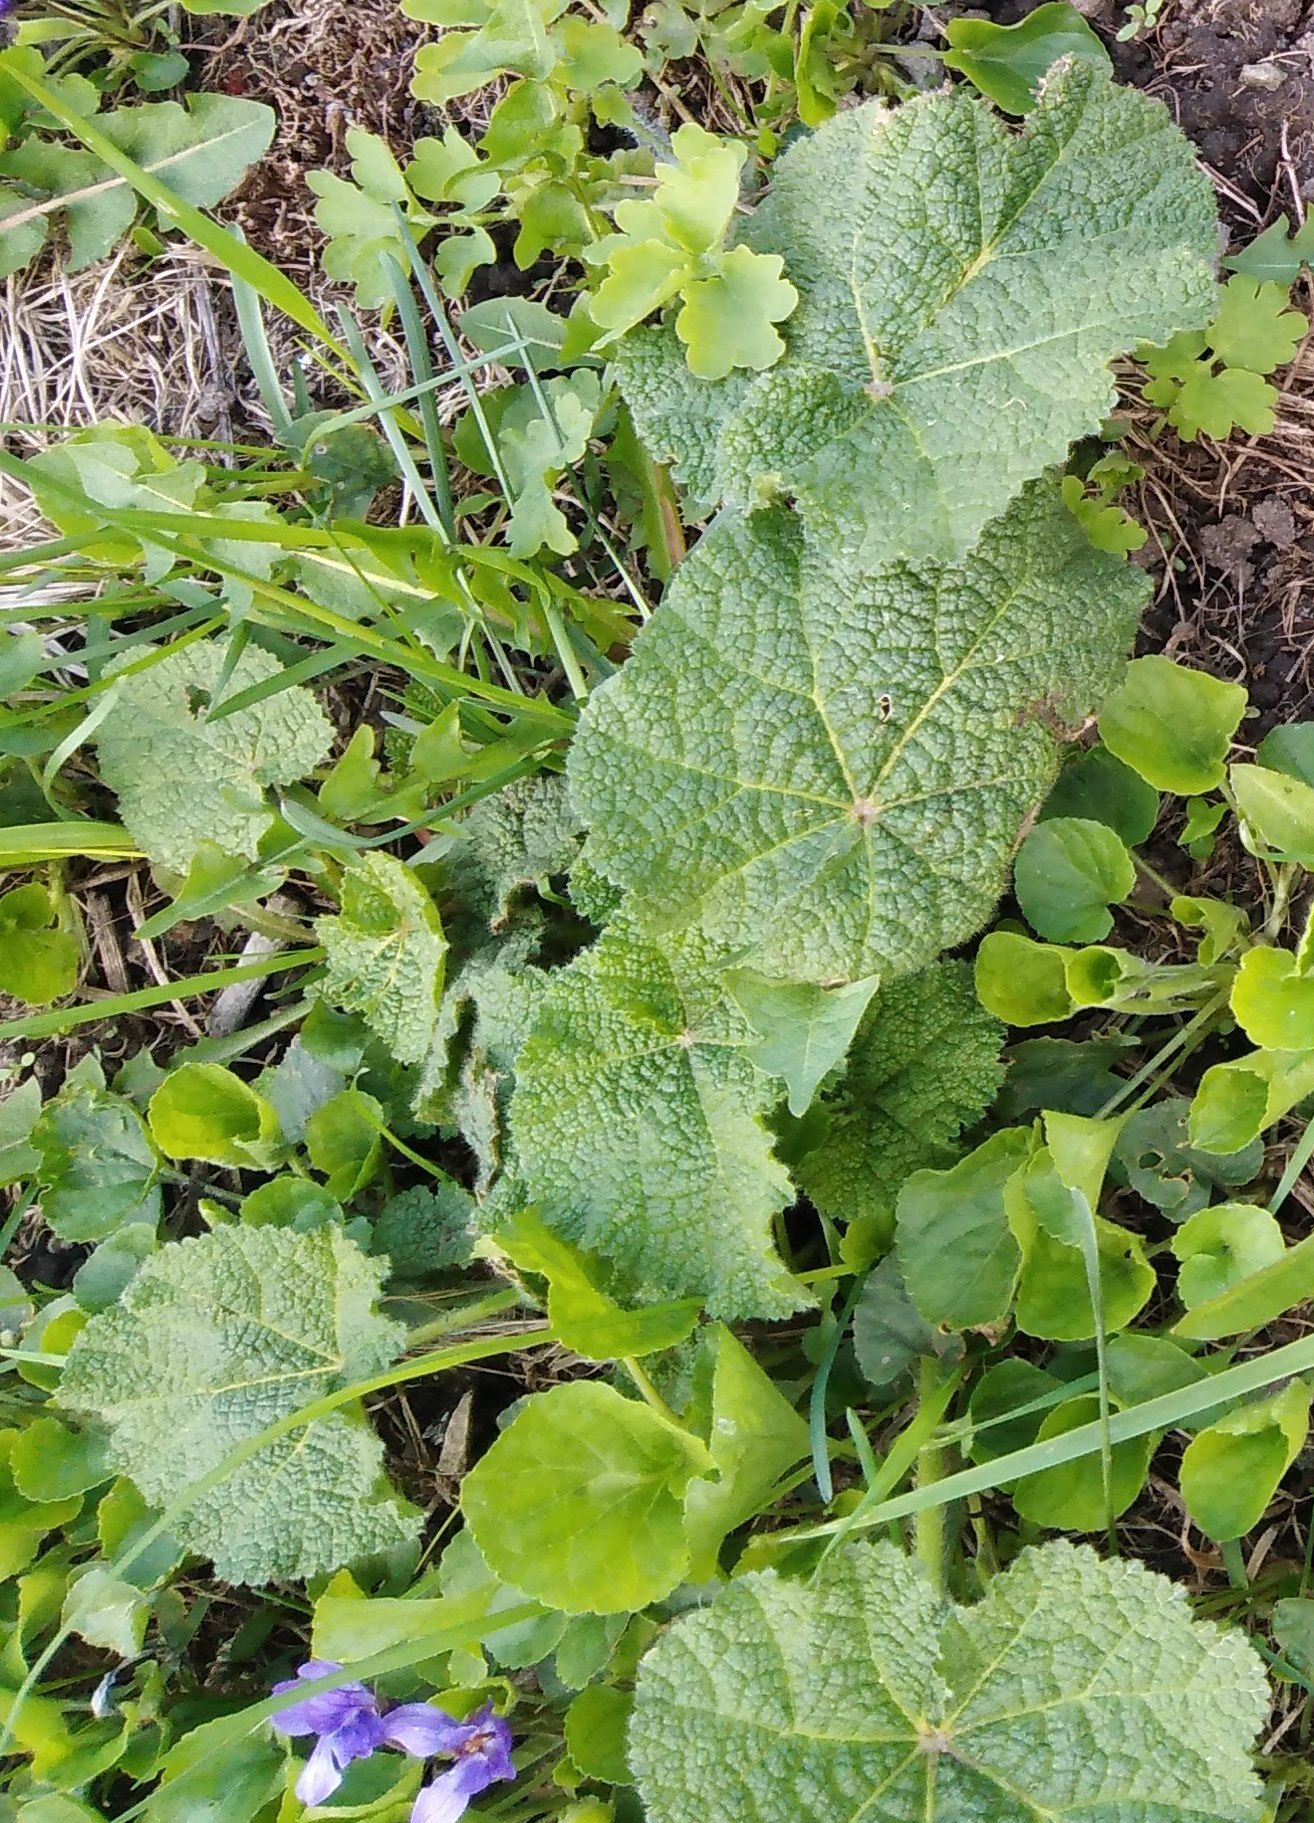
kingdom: Plantae
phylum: Tracheophyta
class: Magnoliopsida
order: Malvales
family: Malvaceae
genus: Alcea
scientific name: Alcea rosea
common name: Hollyhock
